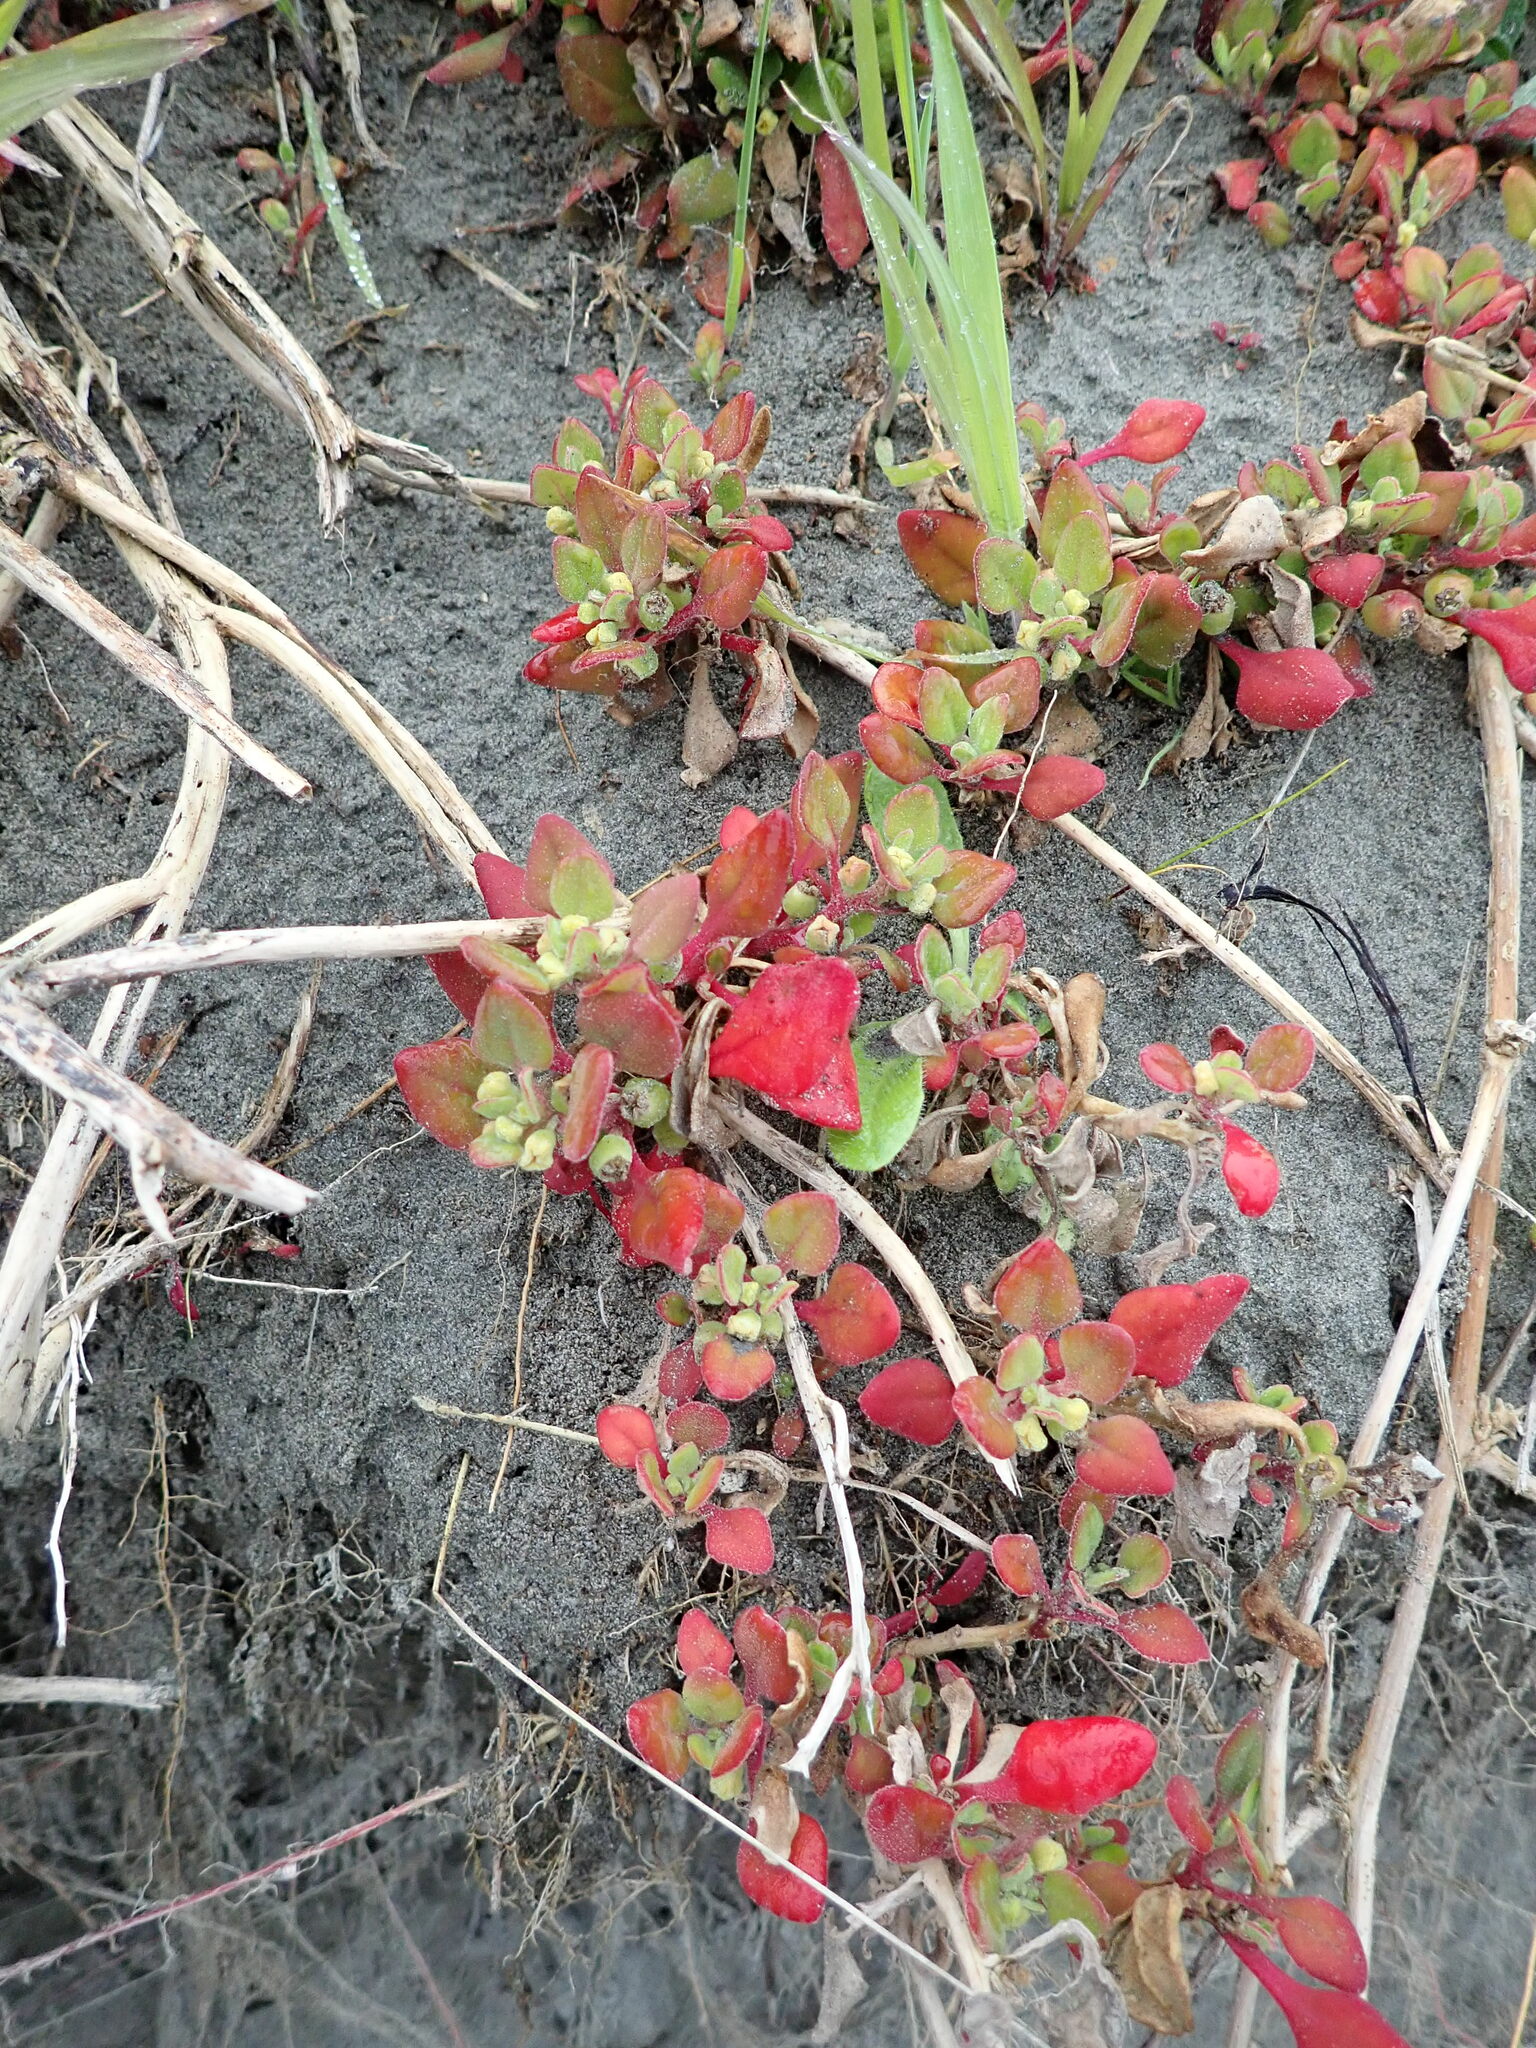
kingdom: Plantae
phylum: Tracheophyta
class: Magnoliopsida
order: Caryophyllales
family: Aizoaceae
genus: Tetragonia
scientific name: Tetragonia implexicoma
